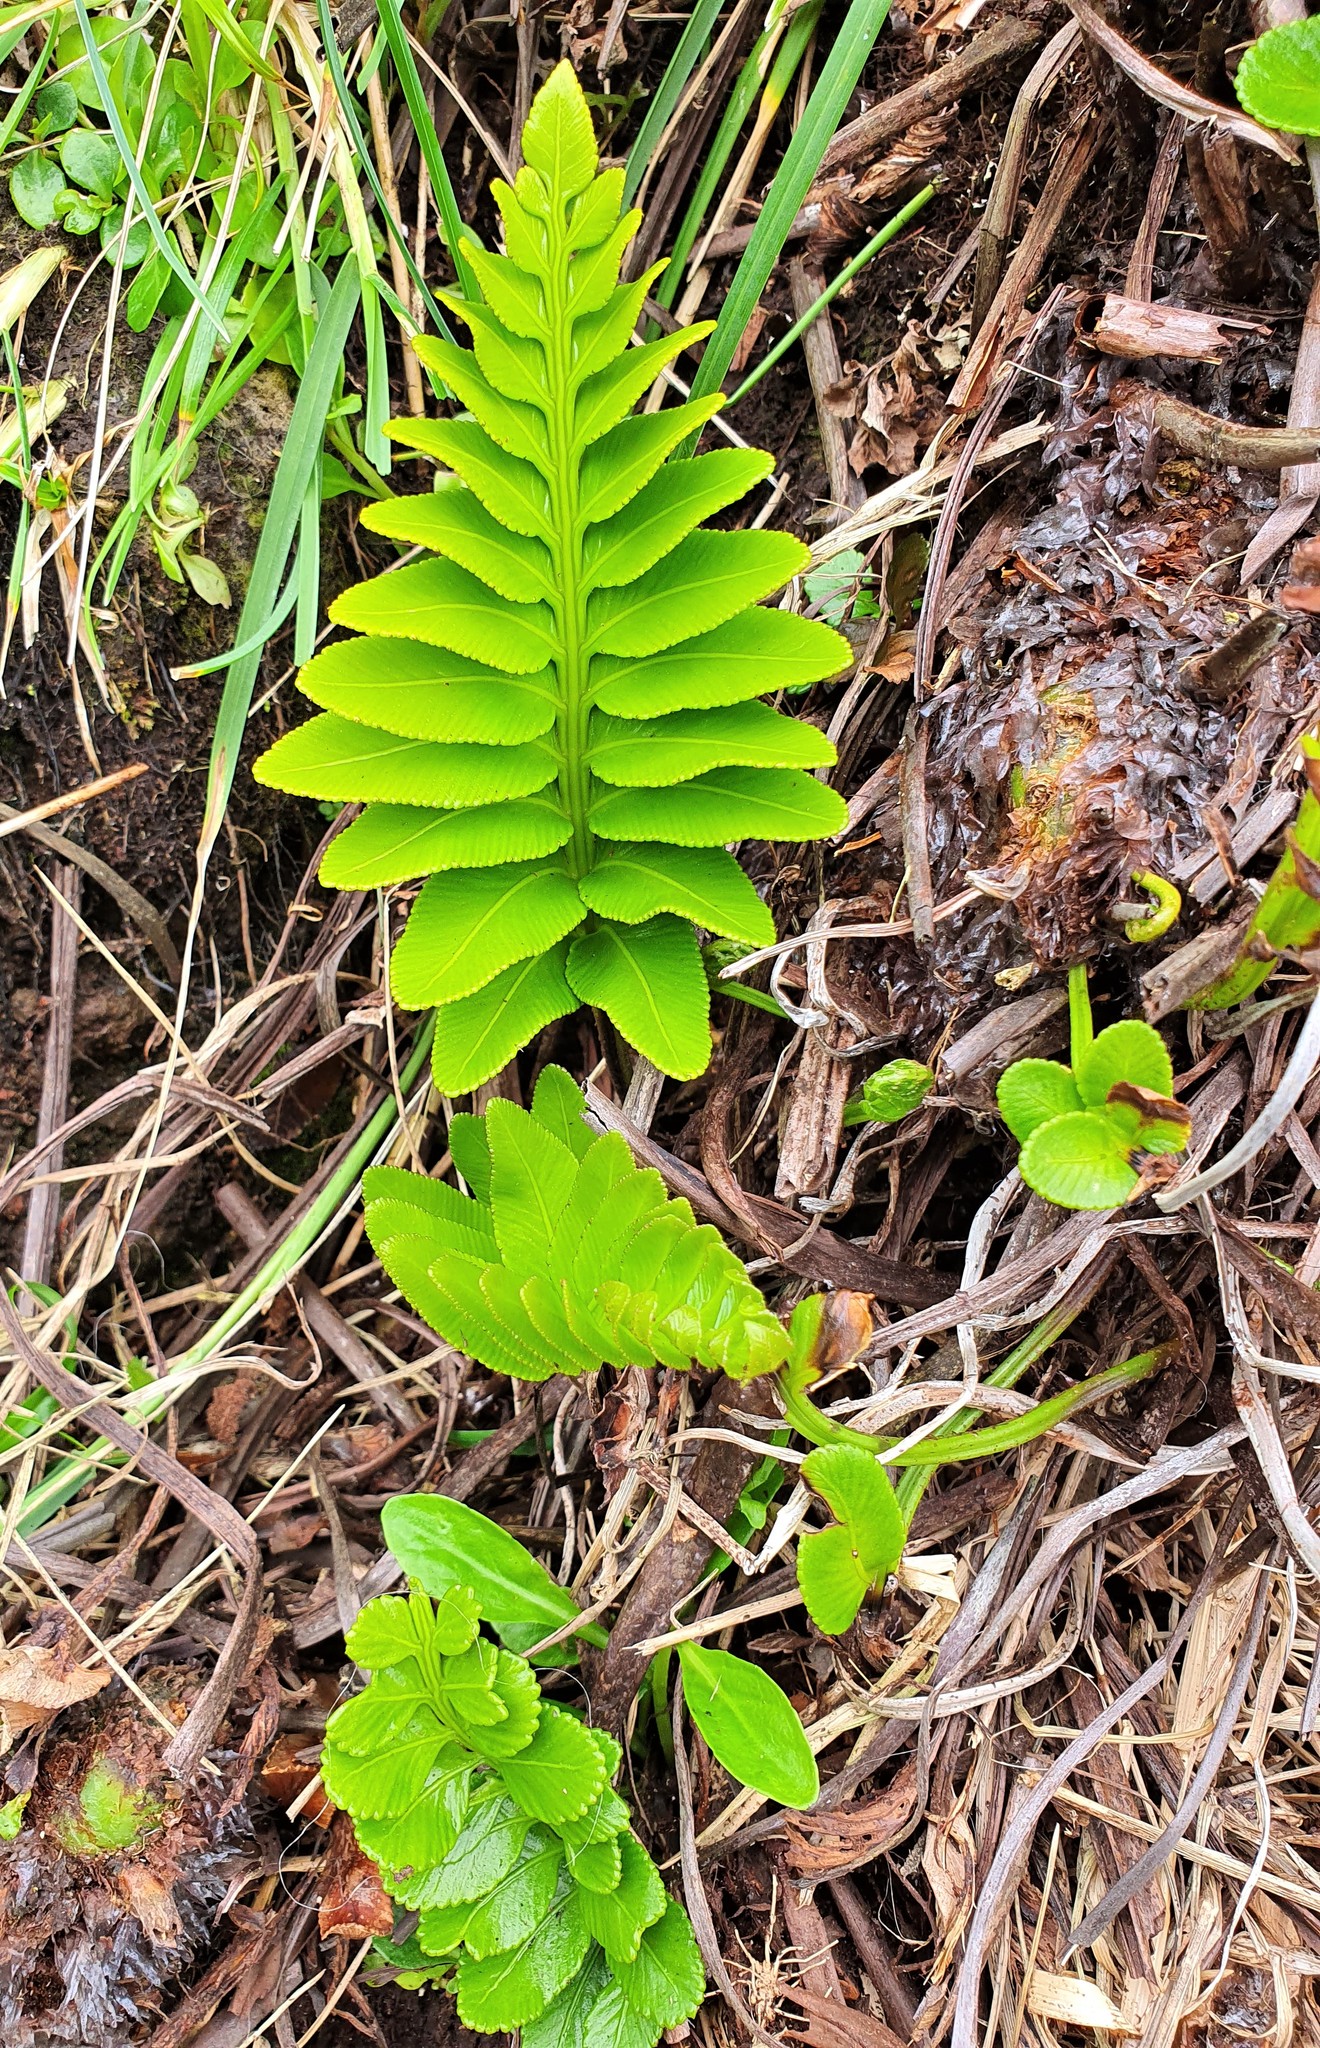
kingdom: Plantae
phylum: Tracheophyta
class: Polypodiopsida
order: Polypodiales
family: Aspleniaceae
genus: Asplenium
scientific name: Asplenium obtusatum
